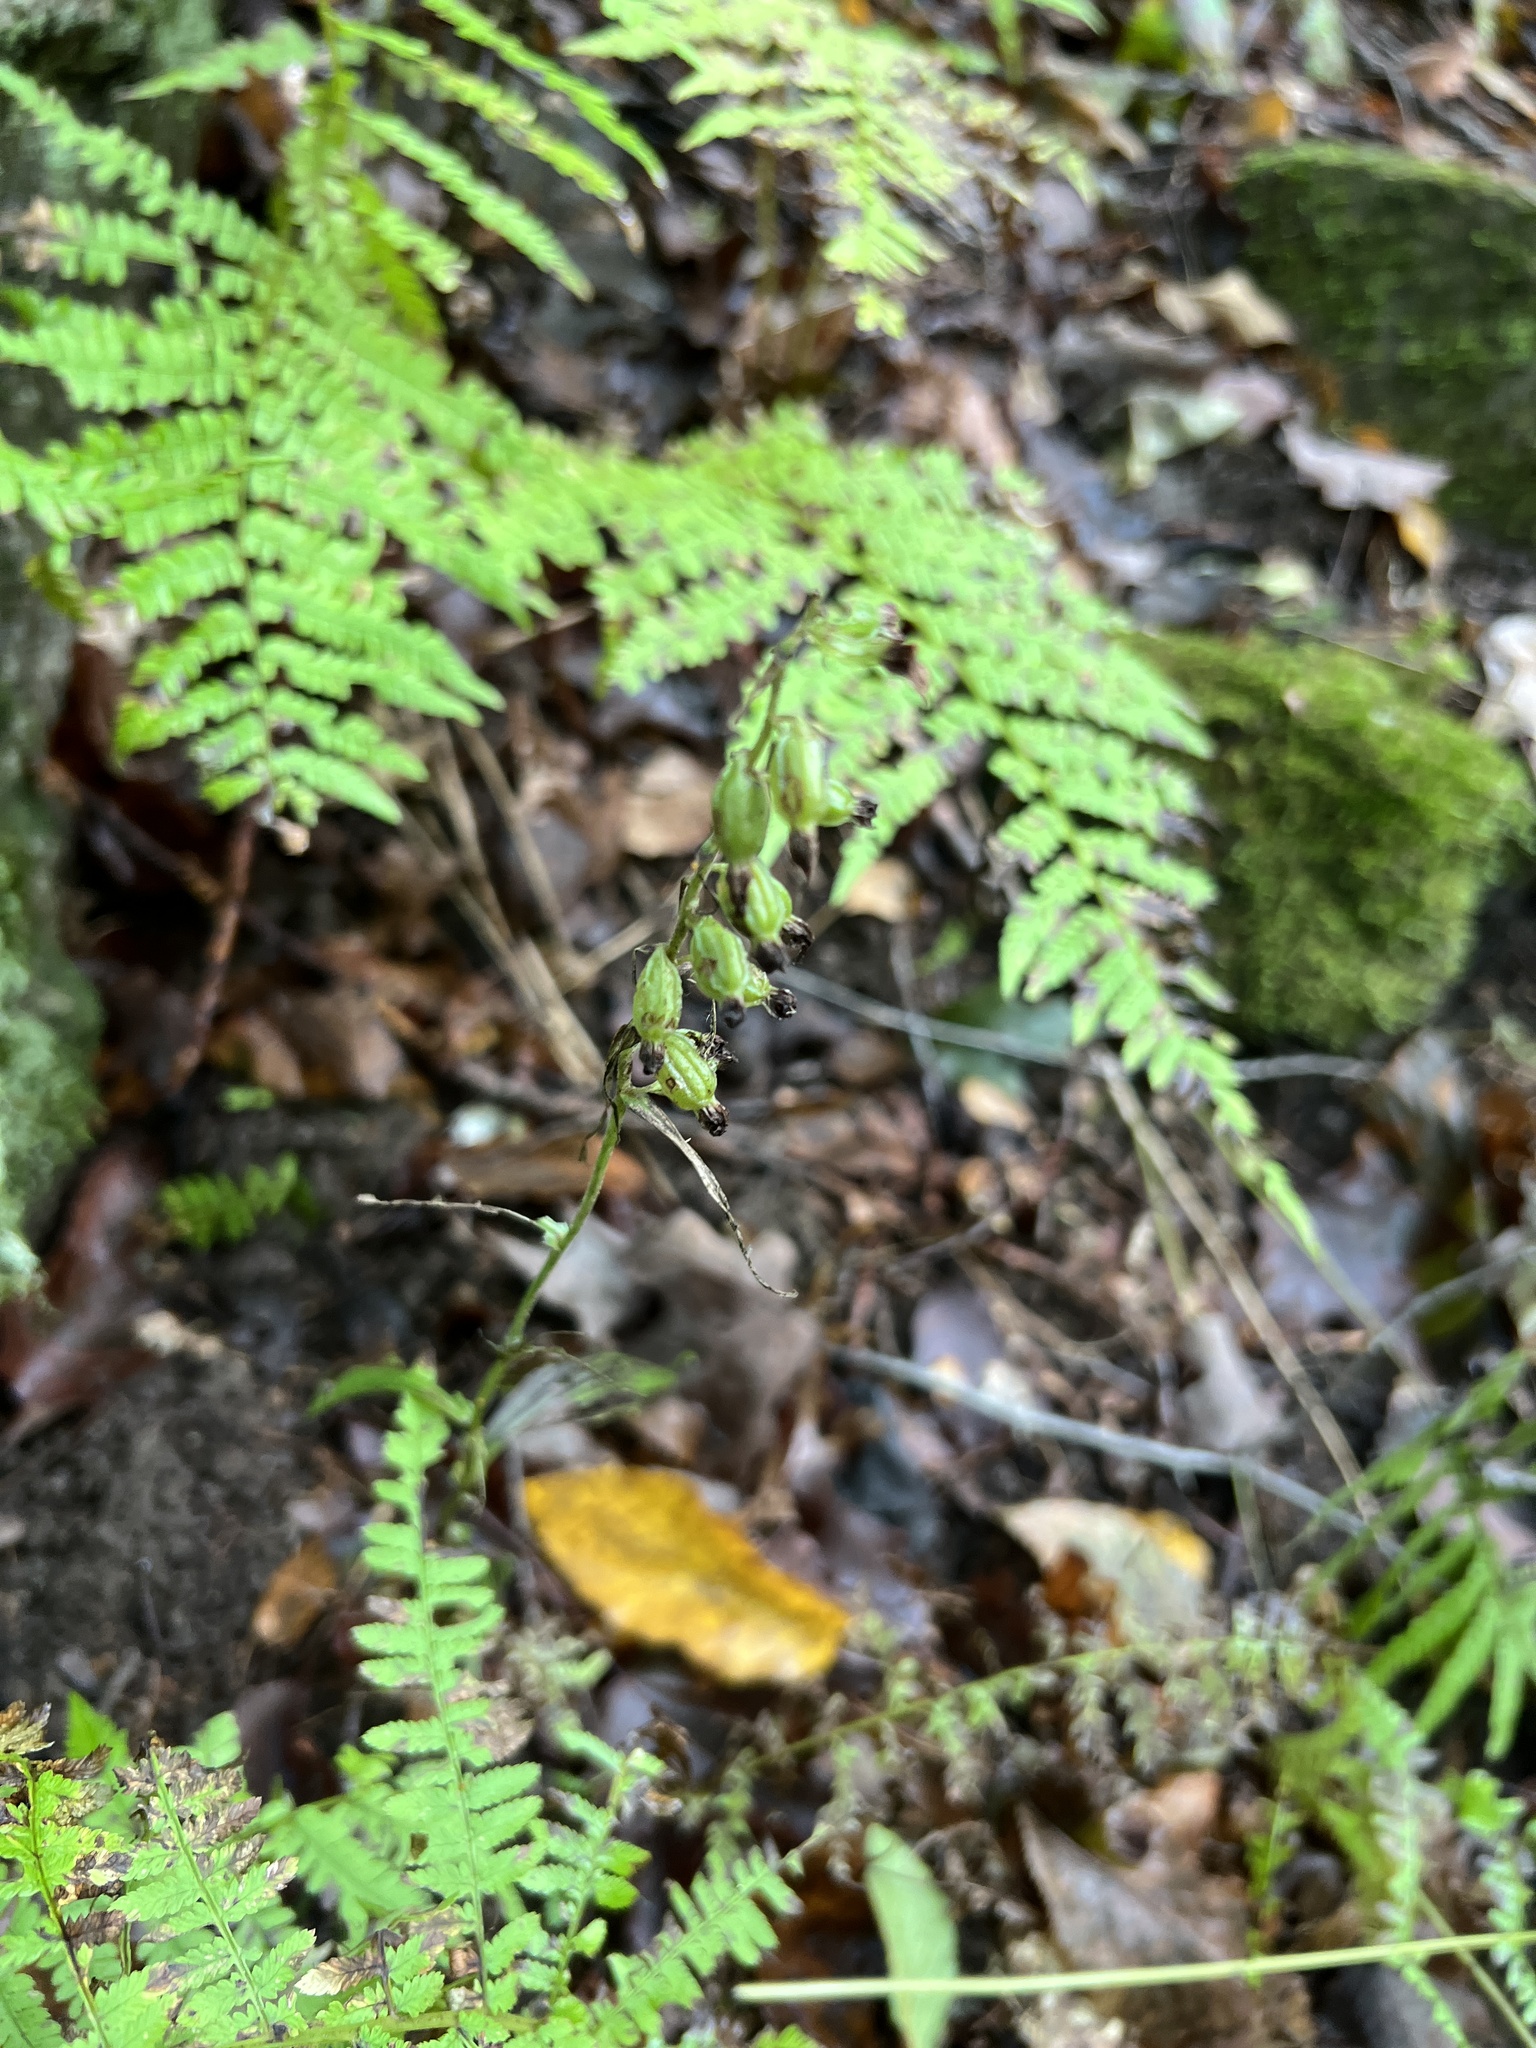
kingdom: Plantae
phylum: Tracheophyta
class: Liliopsida
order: Asparagales
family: Orchidaceae
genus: Epipactis
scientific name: Epipactis helleborine
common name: Broad-leaved helleborine
